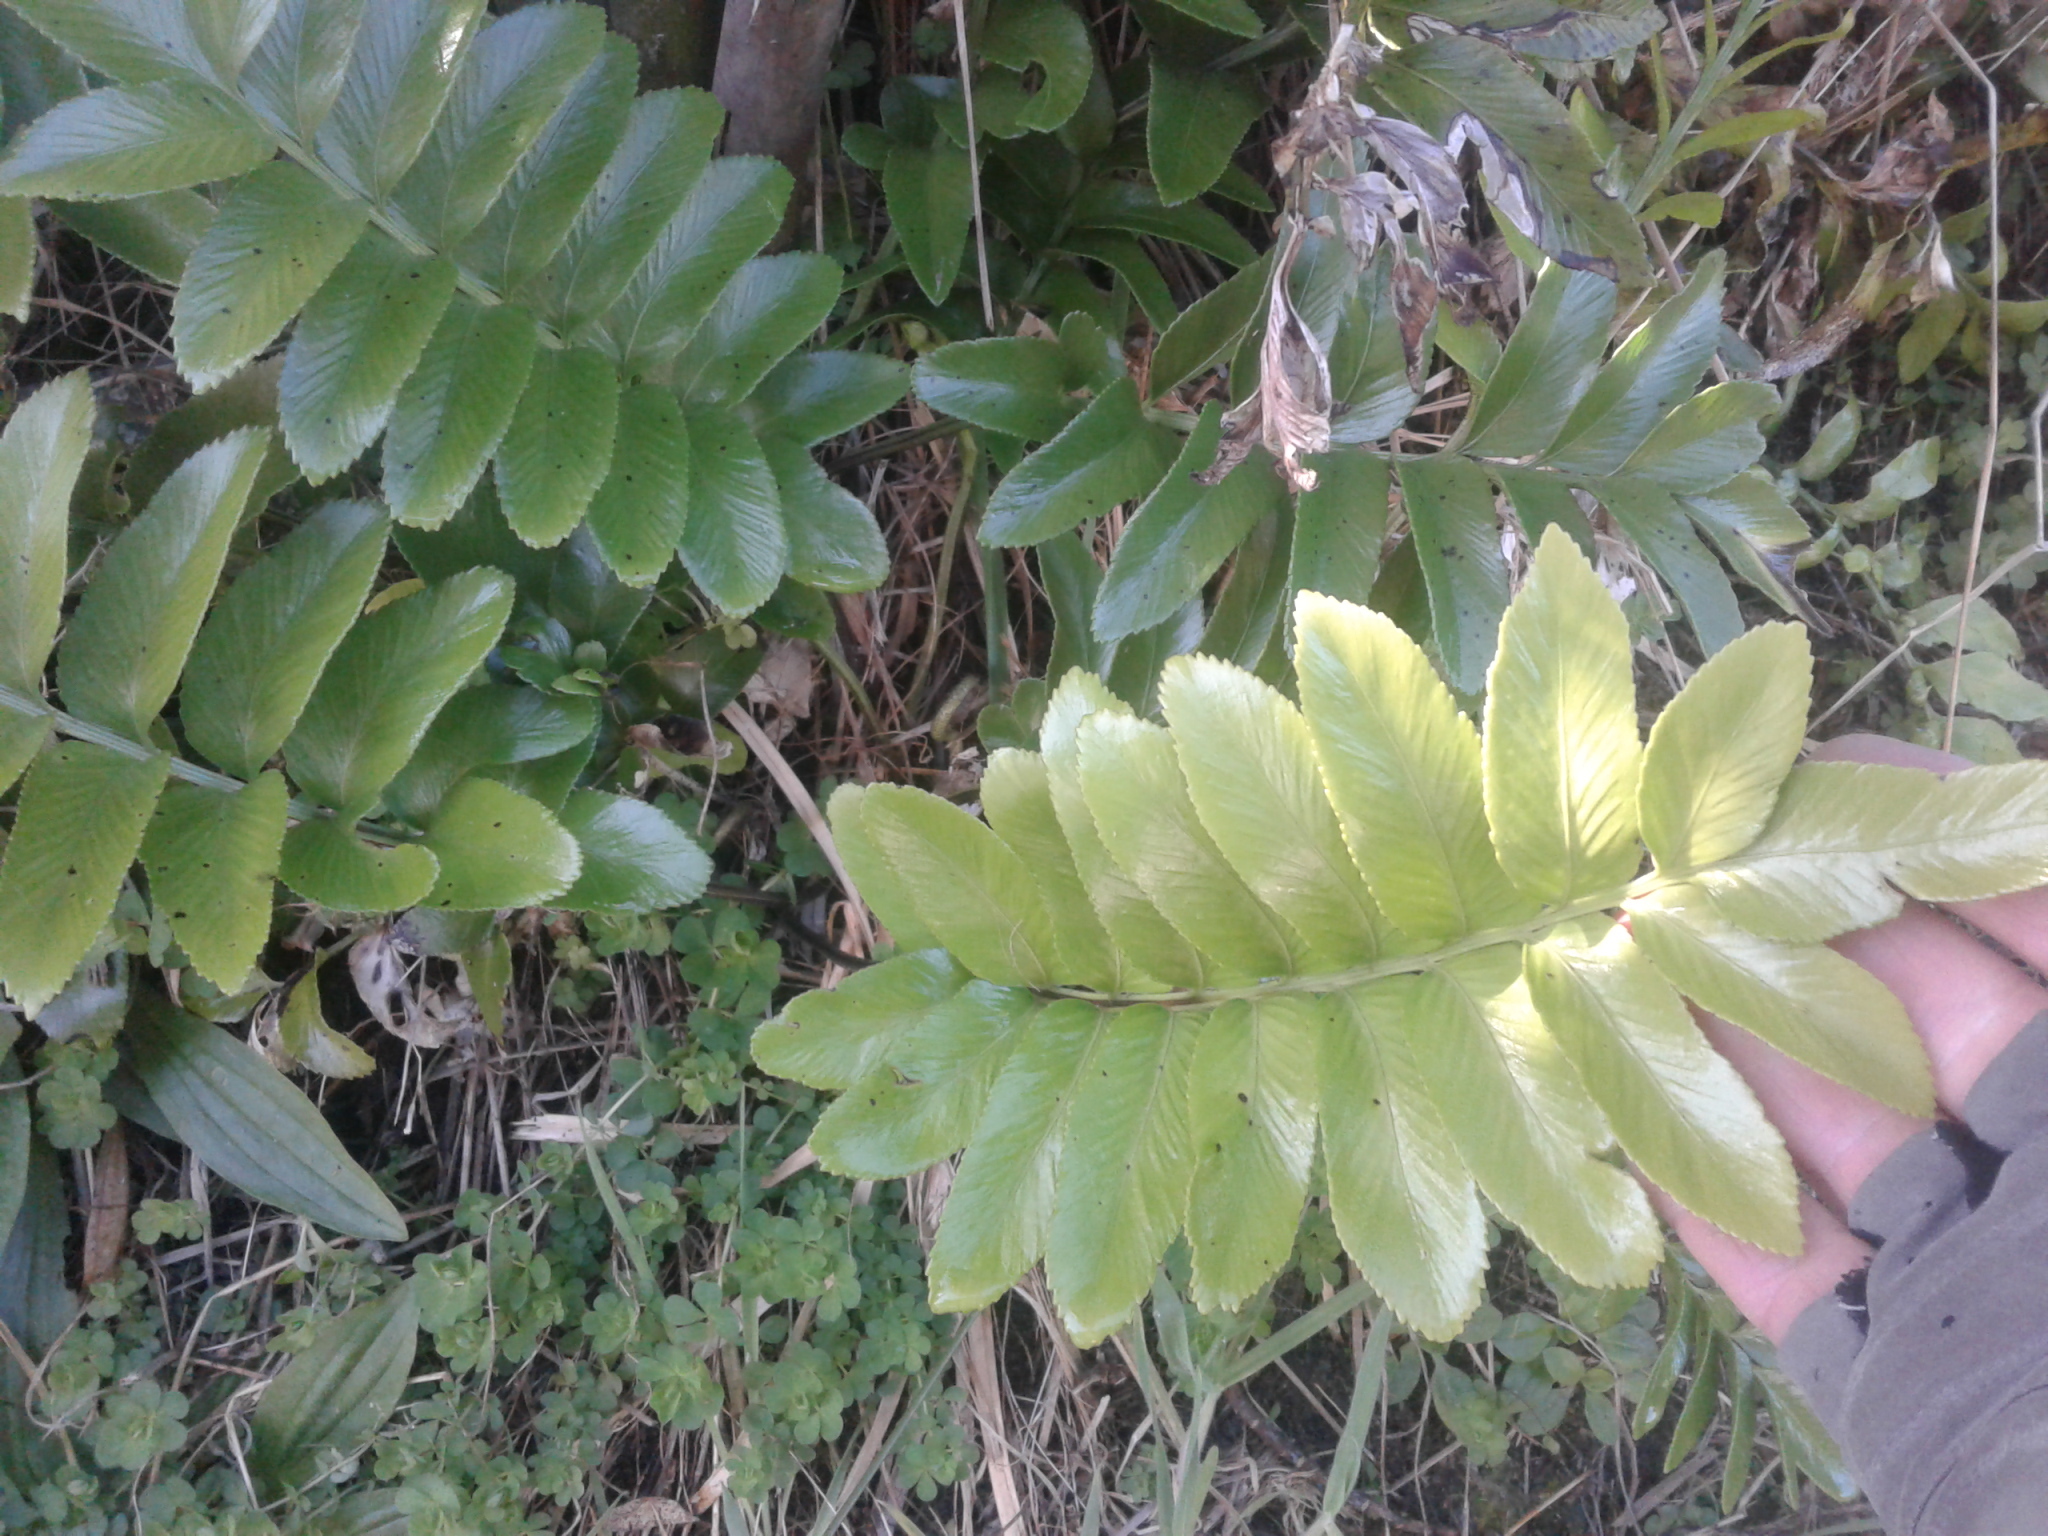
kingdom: Plantae
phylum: Tracheophyta
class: Polypodiopsida
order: Polypodiales
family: Aspleniaceae
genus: Asplenium
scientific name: Asplenium oblongifolium
